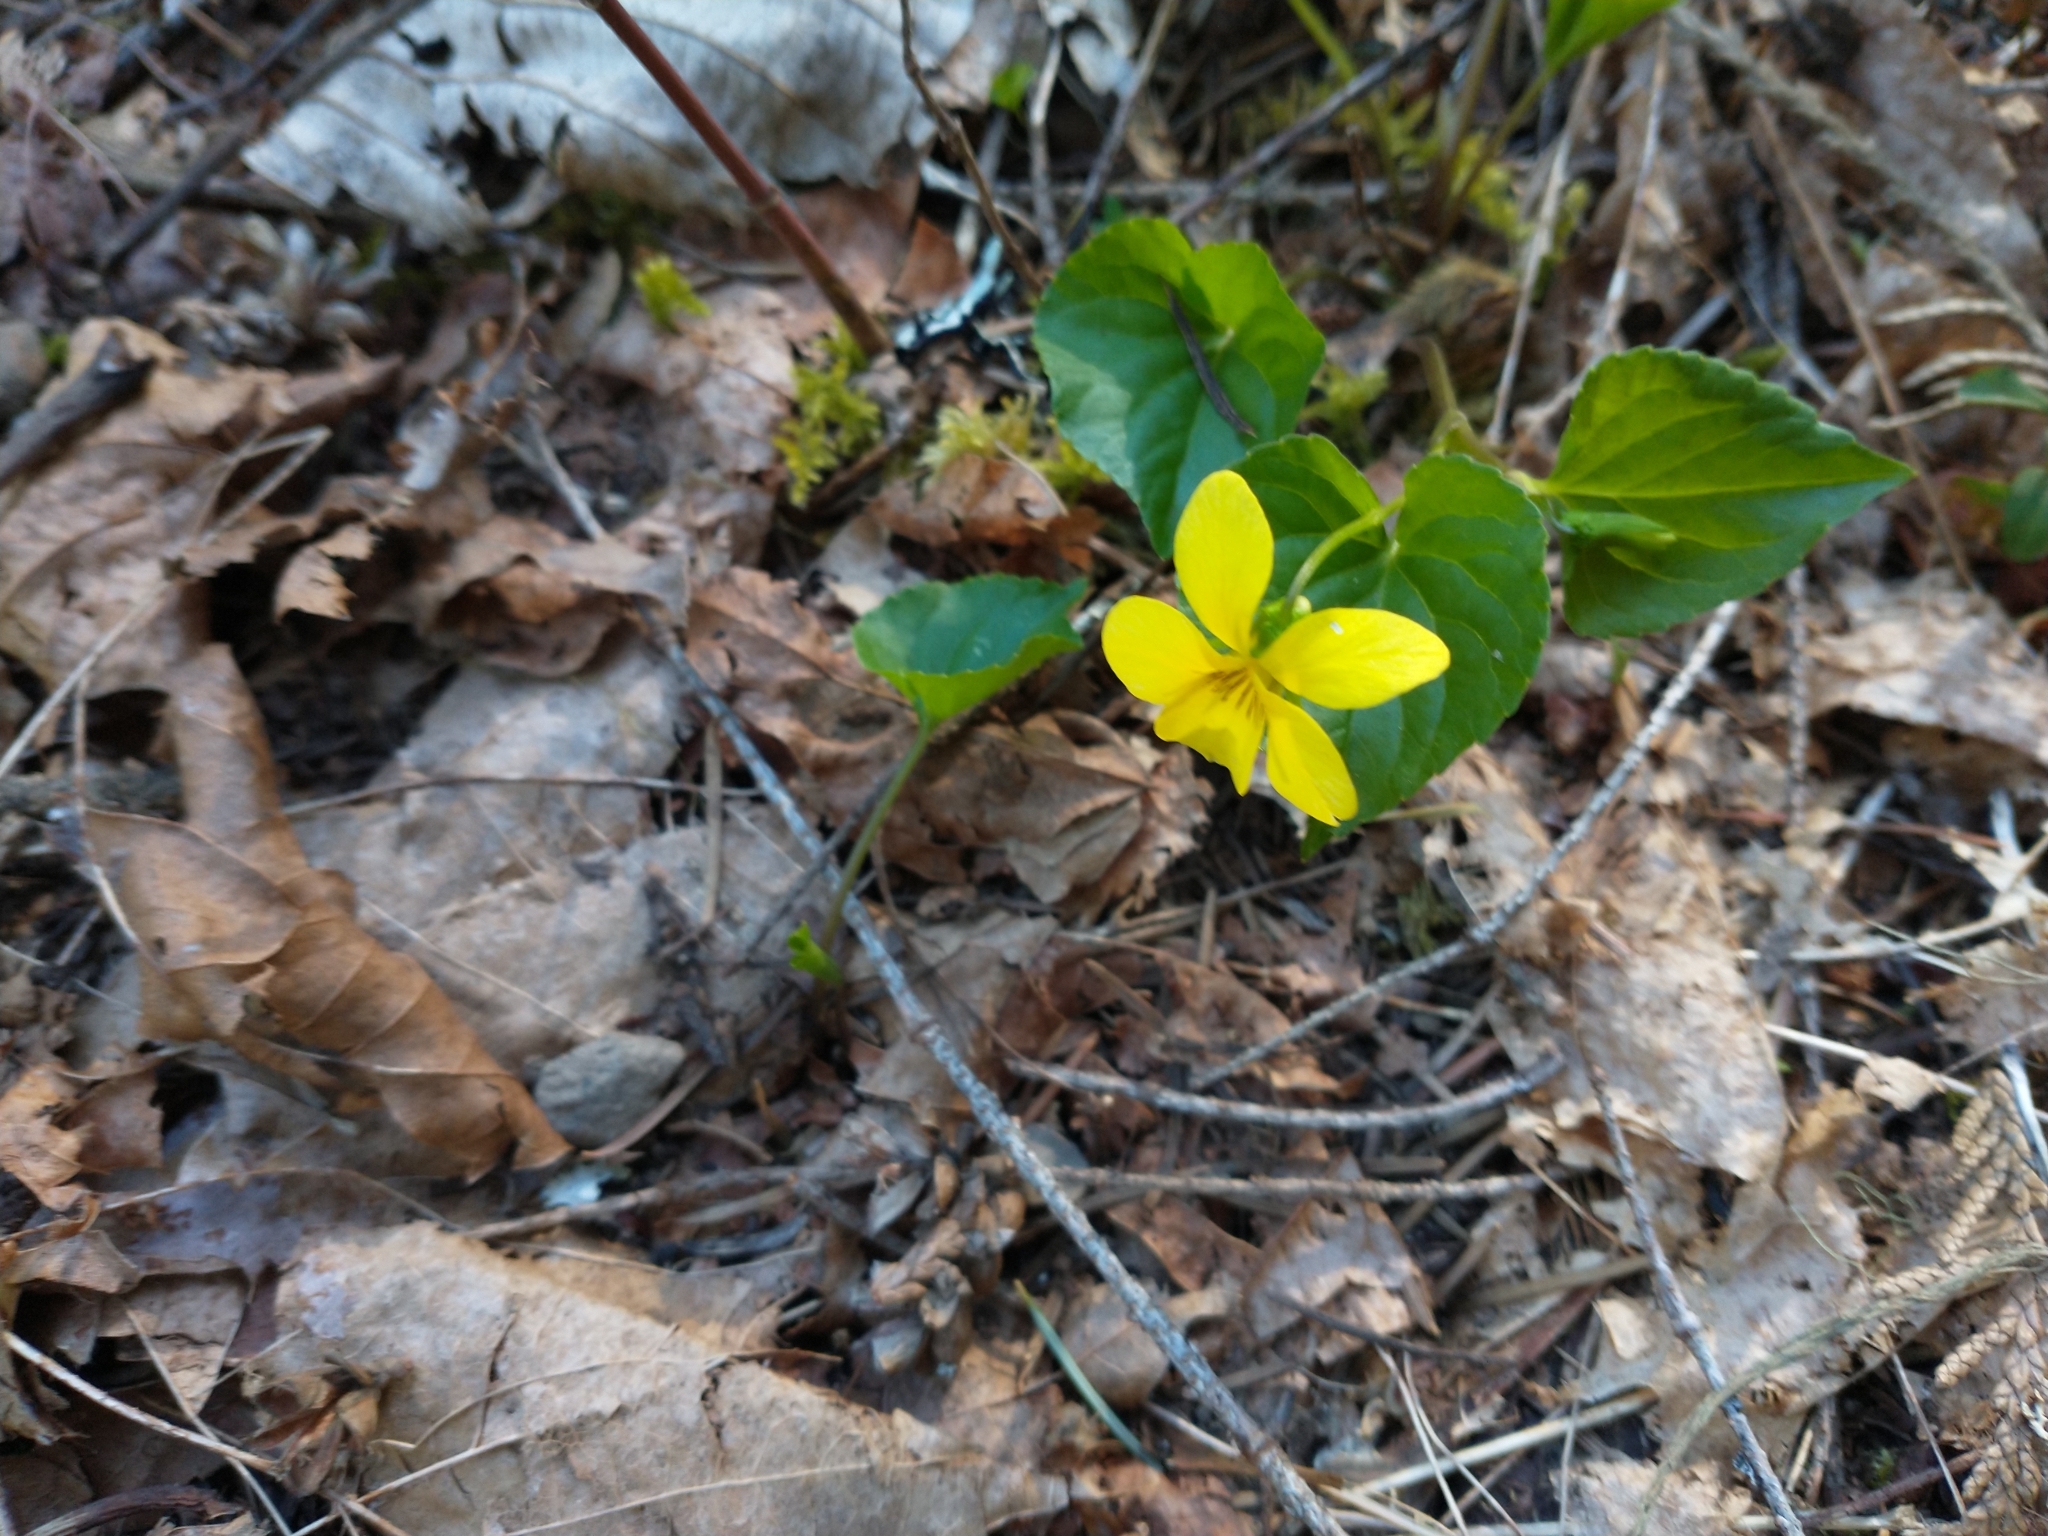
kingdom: Plantae
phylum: Tracheophyta
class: Magnoliopsida
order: Malpighiales
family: Violaceae
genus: Viola
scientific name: Viola glabella
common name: Stream violet
